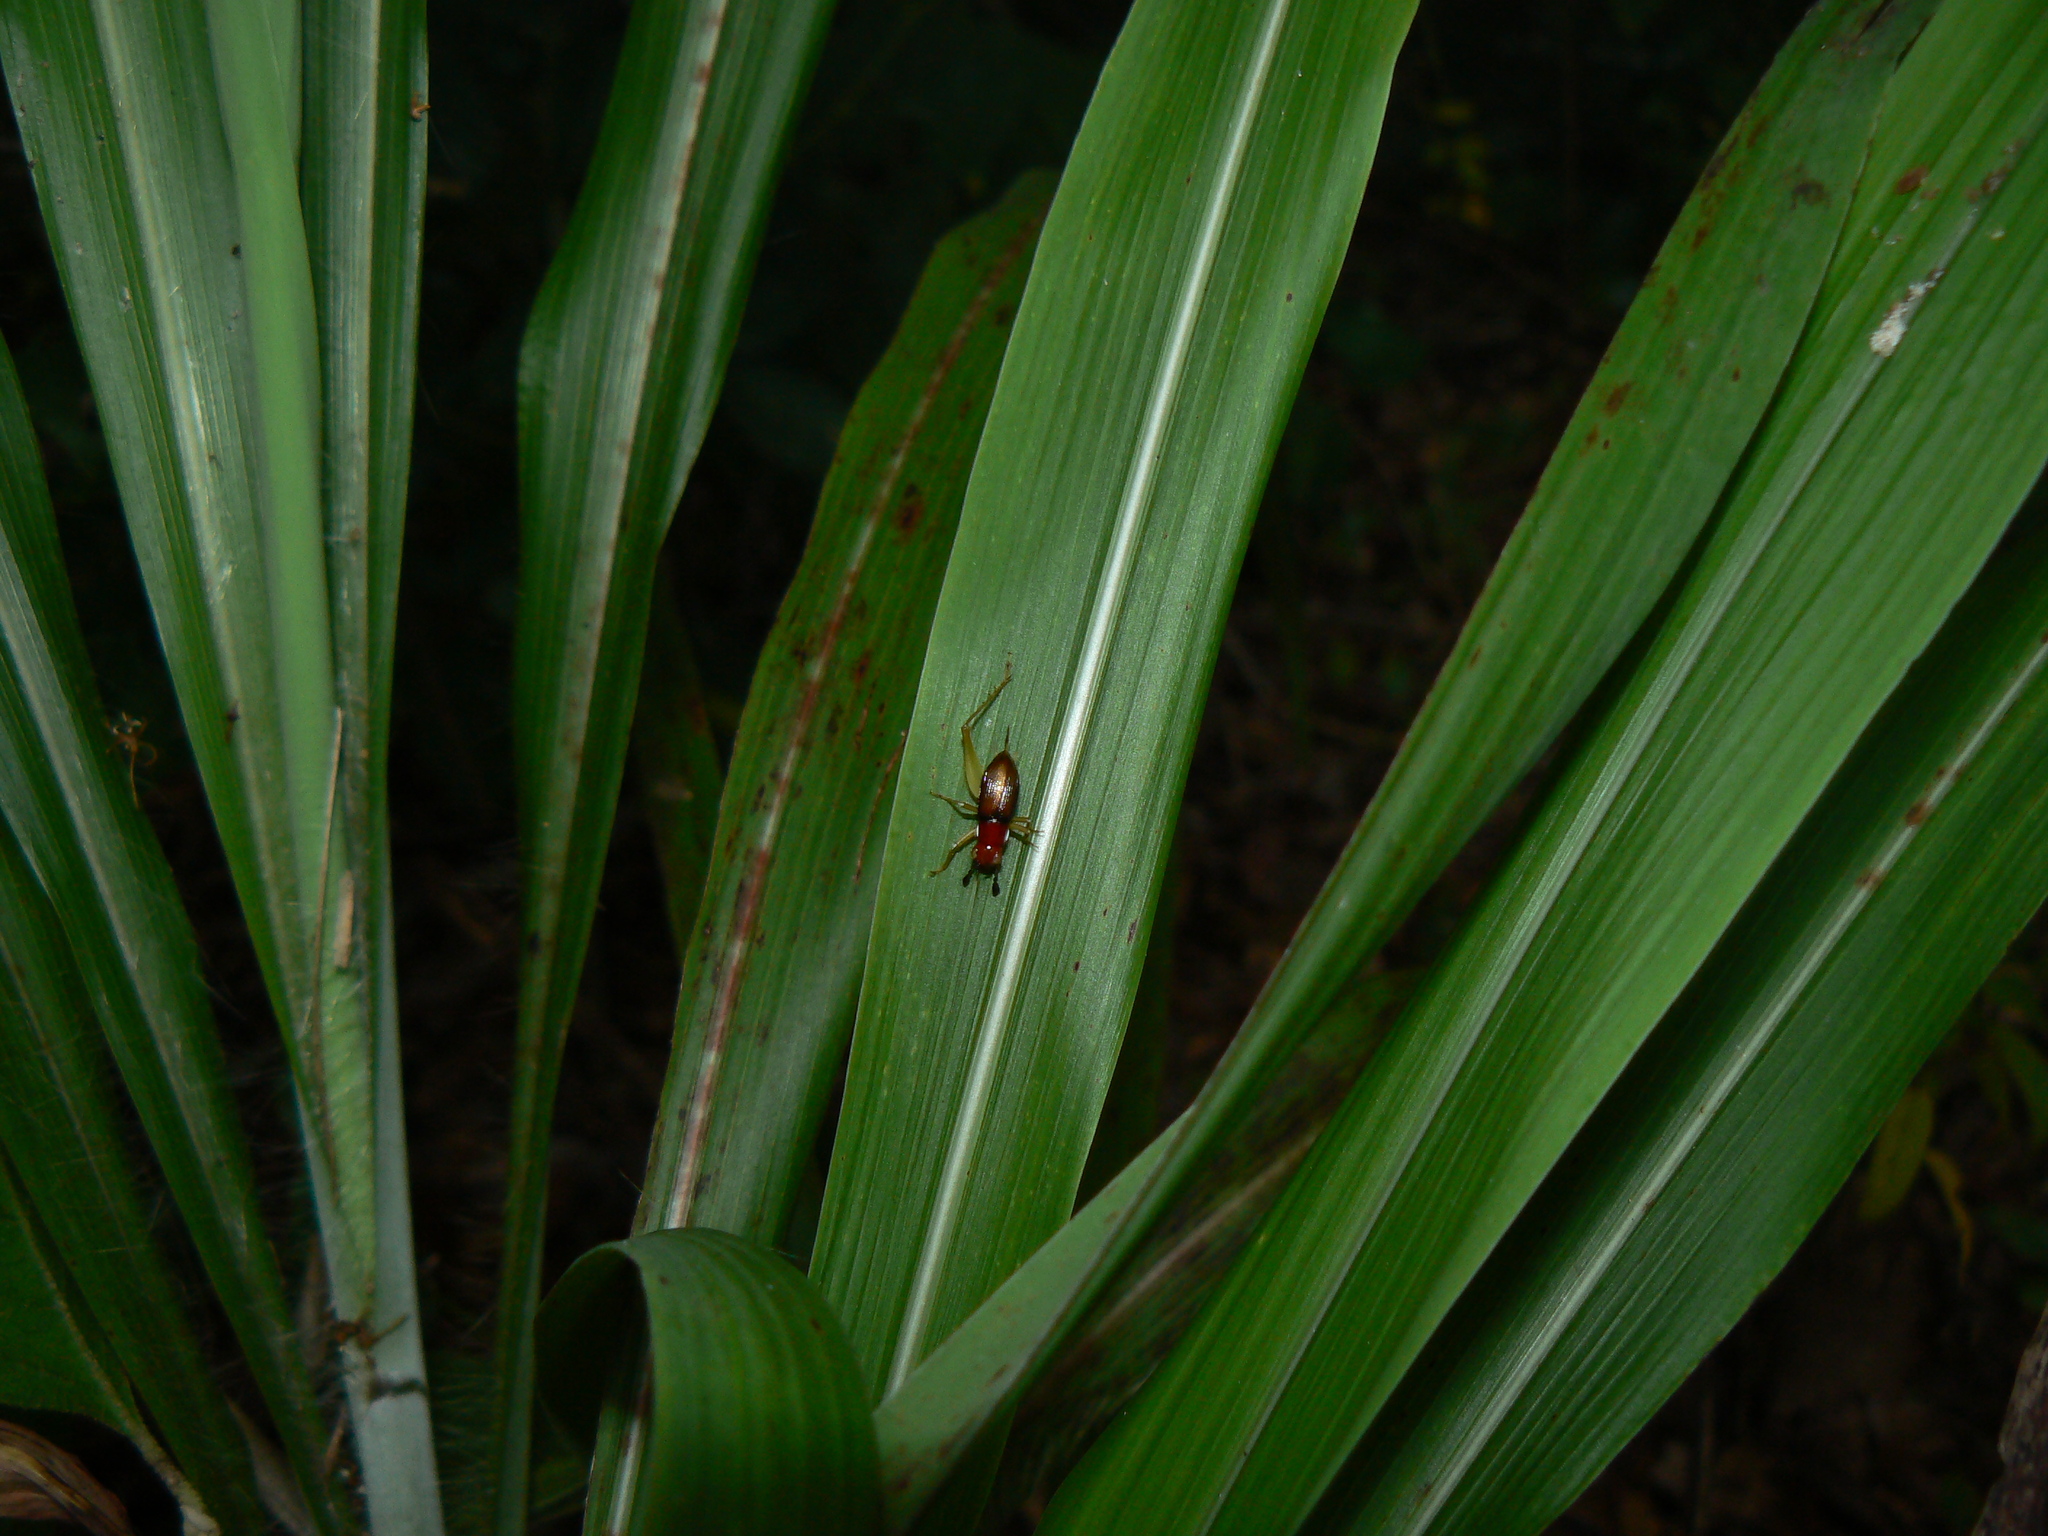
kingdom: Animalia
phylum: Arthropoda
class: Insecta
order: Orthoptera
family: Trigonidiidae
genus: Phyllopalpus
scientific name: Phyllopalpus pulchellus
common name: Handsome trig
